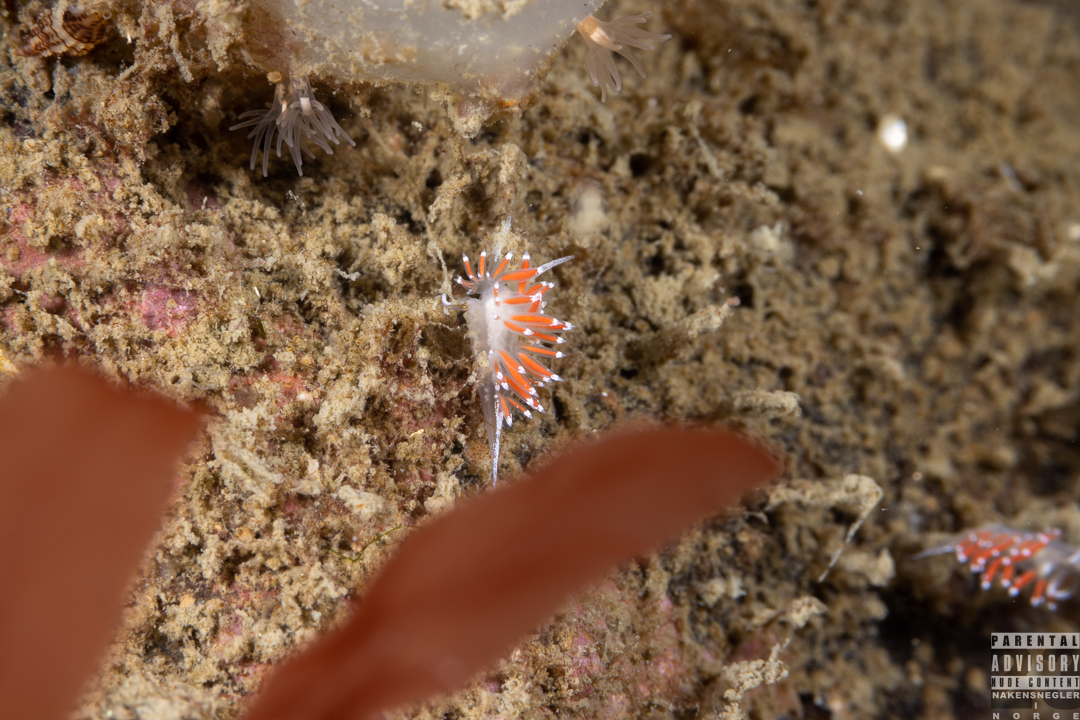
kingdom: Animalia
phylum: Mollusca
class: Gastropoda
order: Nudibranchia
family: Coryphellidae
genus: Coryphella
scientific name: Coryphella gracilis
